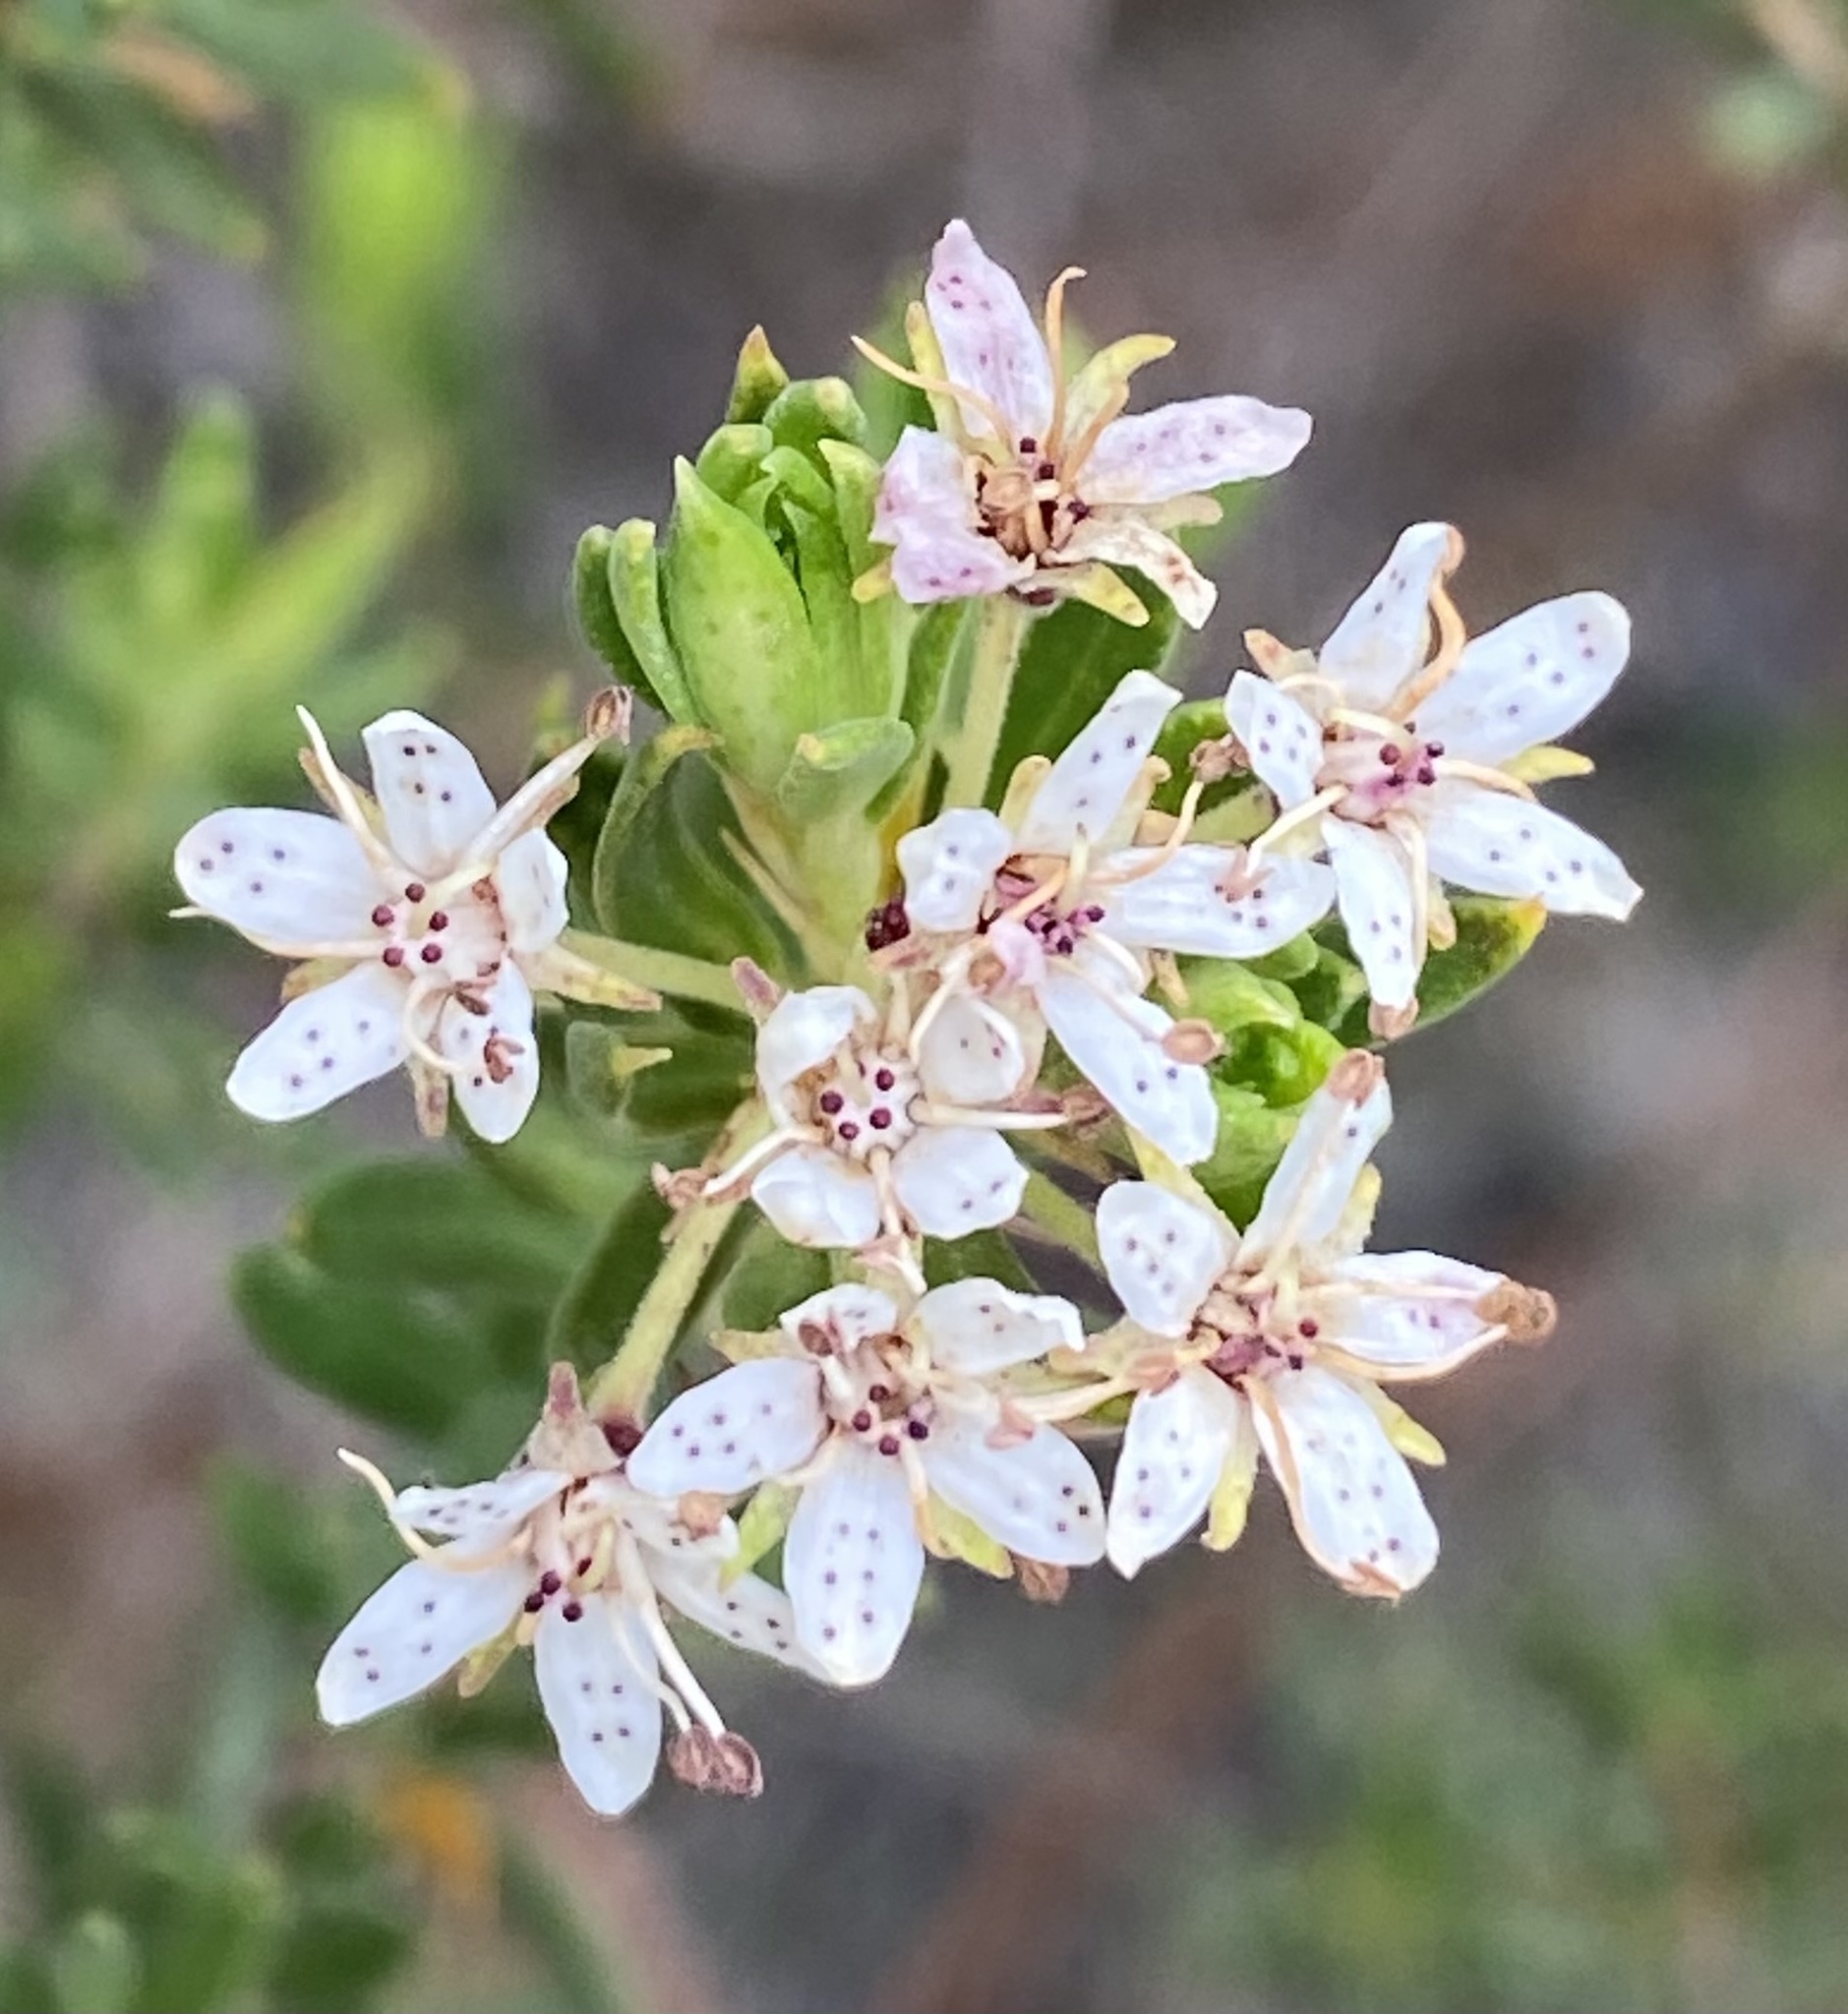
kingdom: Plantae
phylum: Tracheophyta
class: Magnoliopsida
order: Sapindales
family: Rutaceae
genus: Agathosma
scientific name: Agathosma puberula
